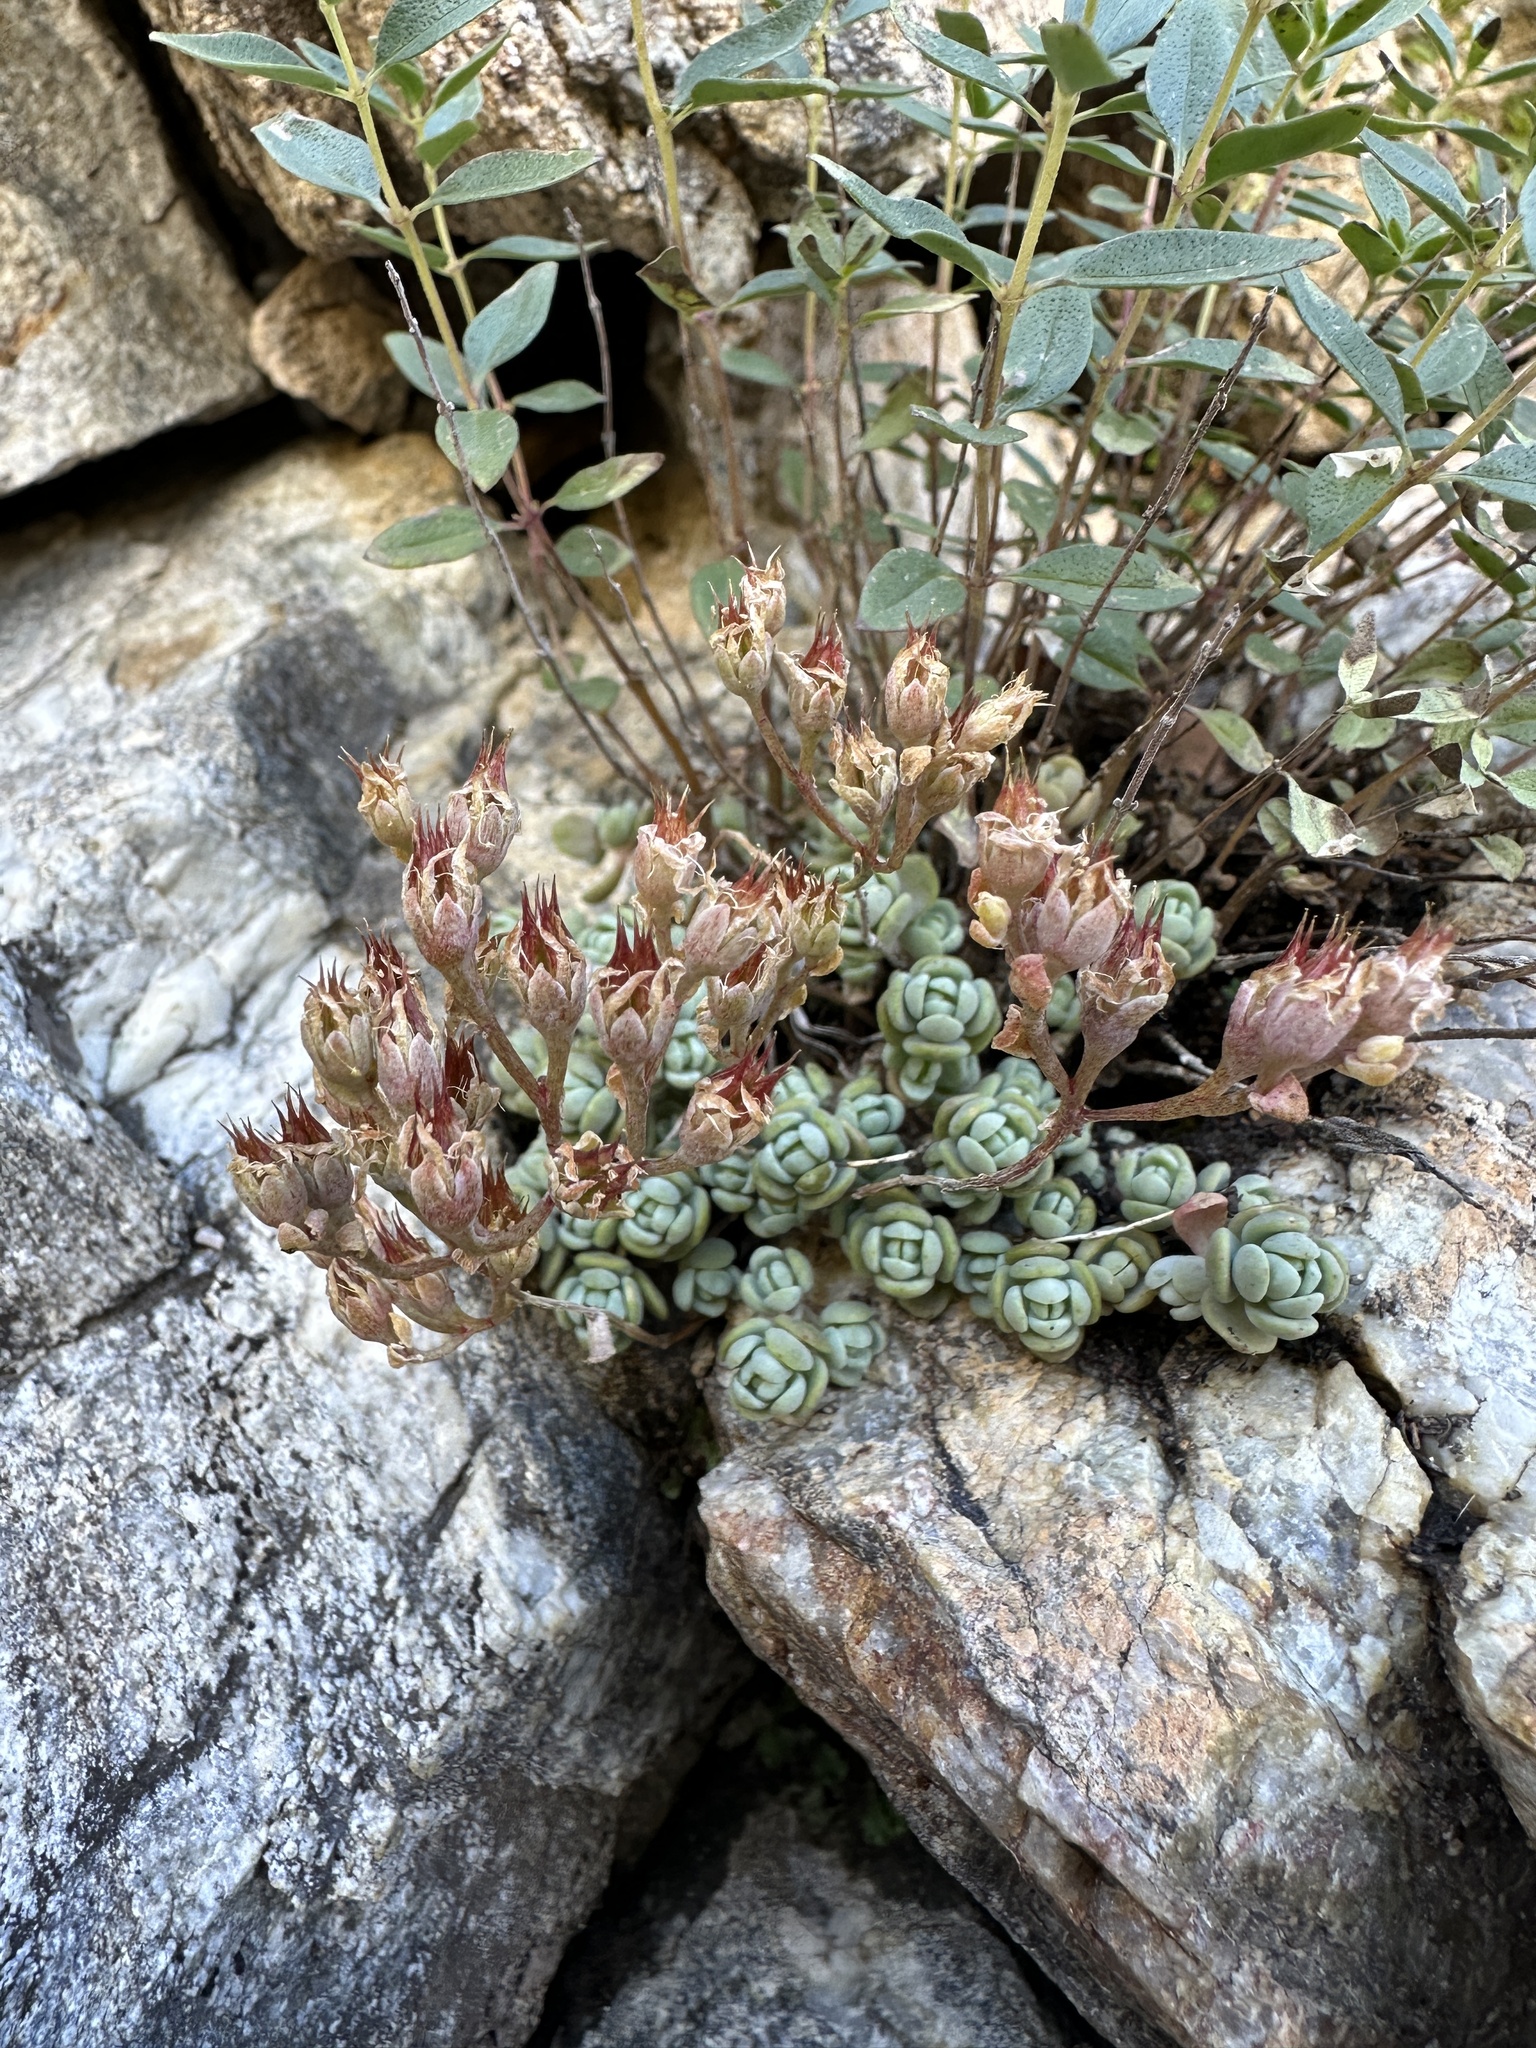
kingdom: Plantae
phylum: Tracheophyta
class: Magnoliopsida
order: Saxifragales
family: Crassulaceae
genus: Sedum
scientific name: Sedum debile
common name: Weak-stem stonecrop
